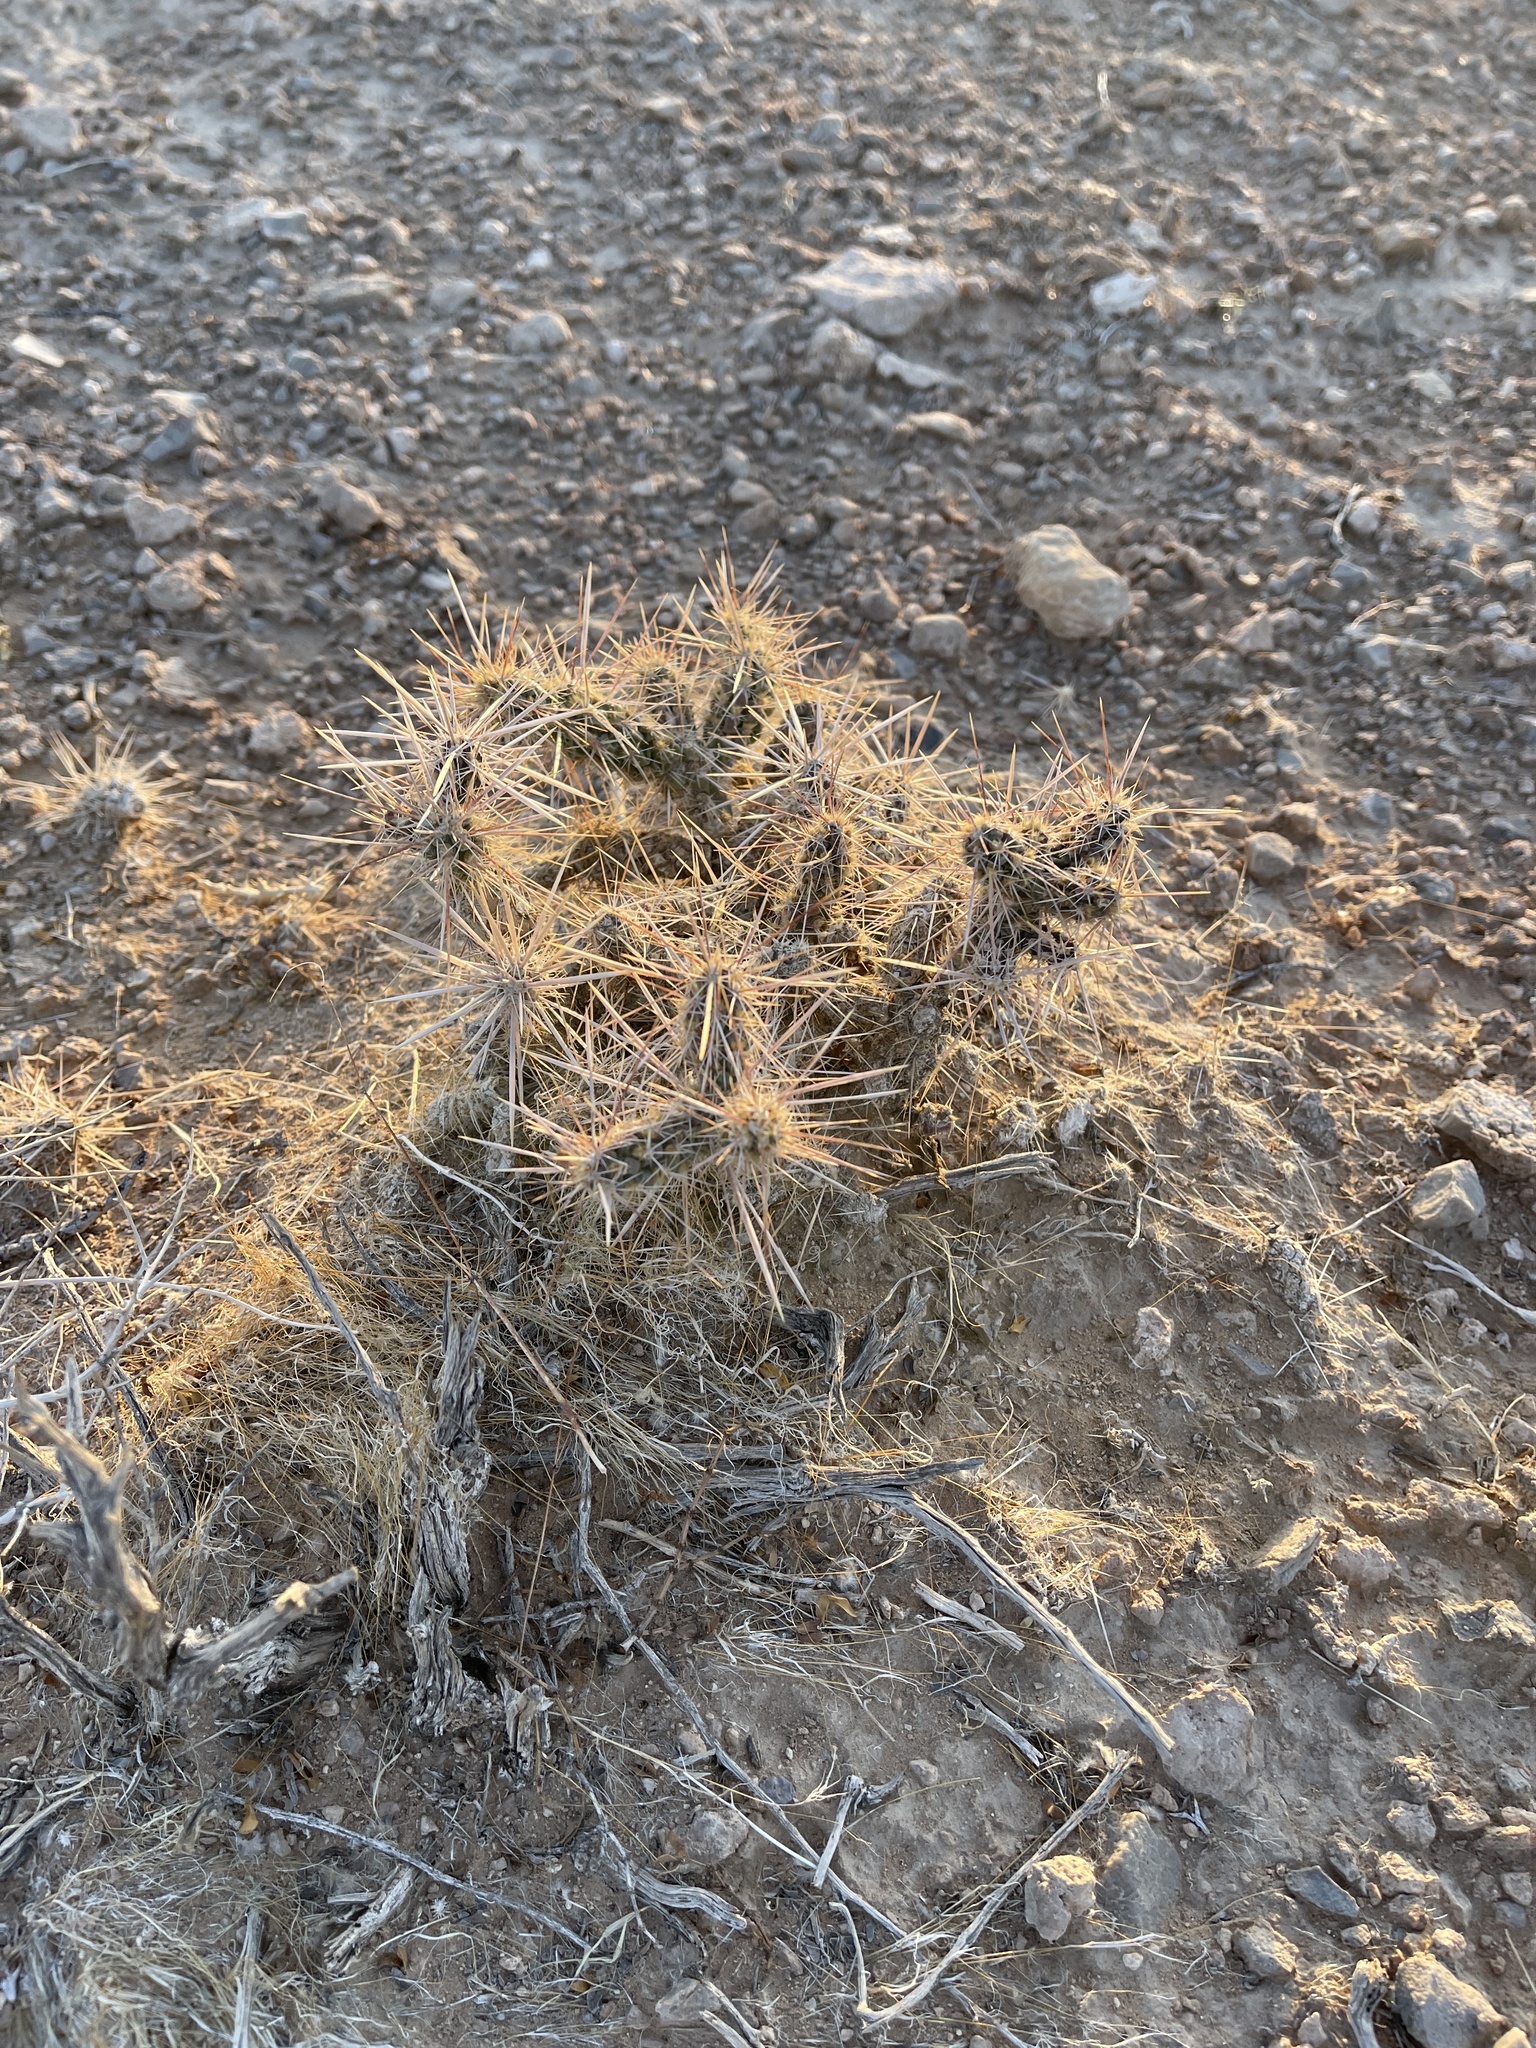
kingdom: Plantae
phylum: Tracheophyta
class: Magnoliopsida
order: Caryophyllales
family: Cactaceae
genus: Cylindropuntia
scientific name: Cylindropuntia whipplei
